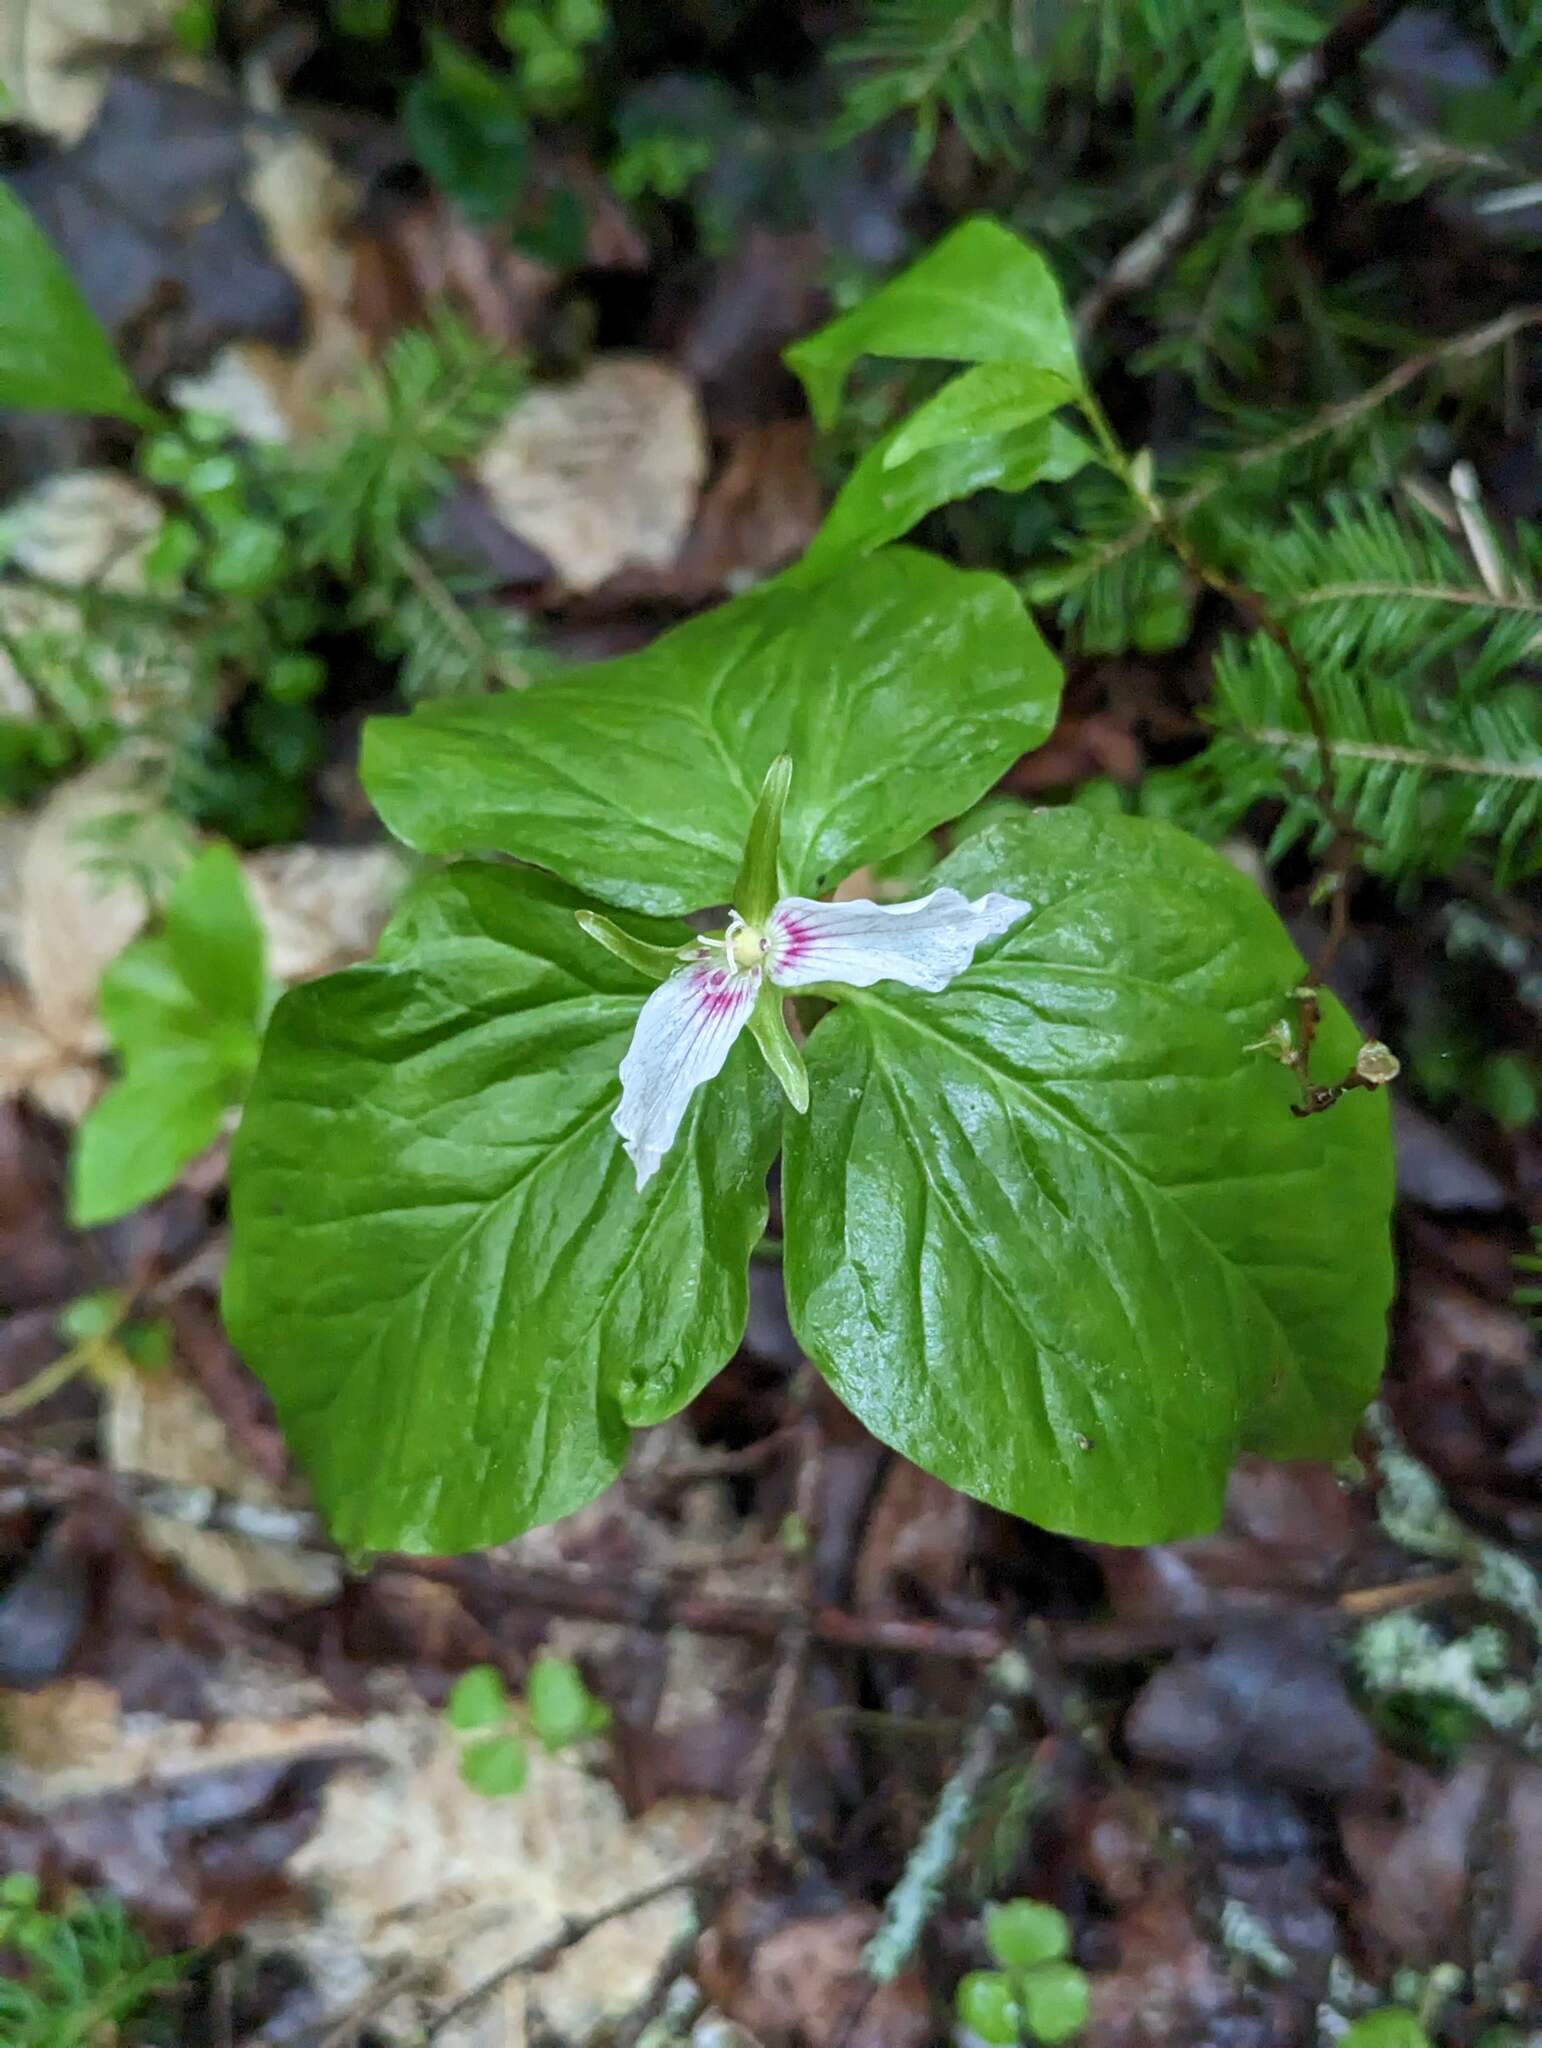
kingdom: Plantae
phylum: Tracheophyta
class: Liliopsida
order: Liliales
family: Melanthiaceae
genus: Trillium
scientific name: Trillium undulatum
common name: Paint trillium
